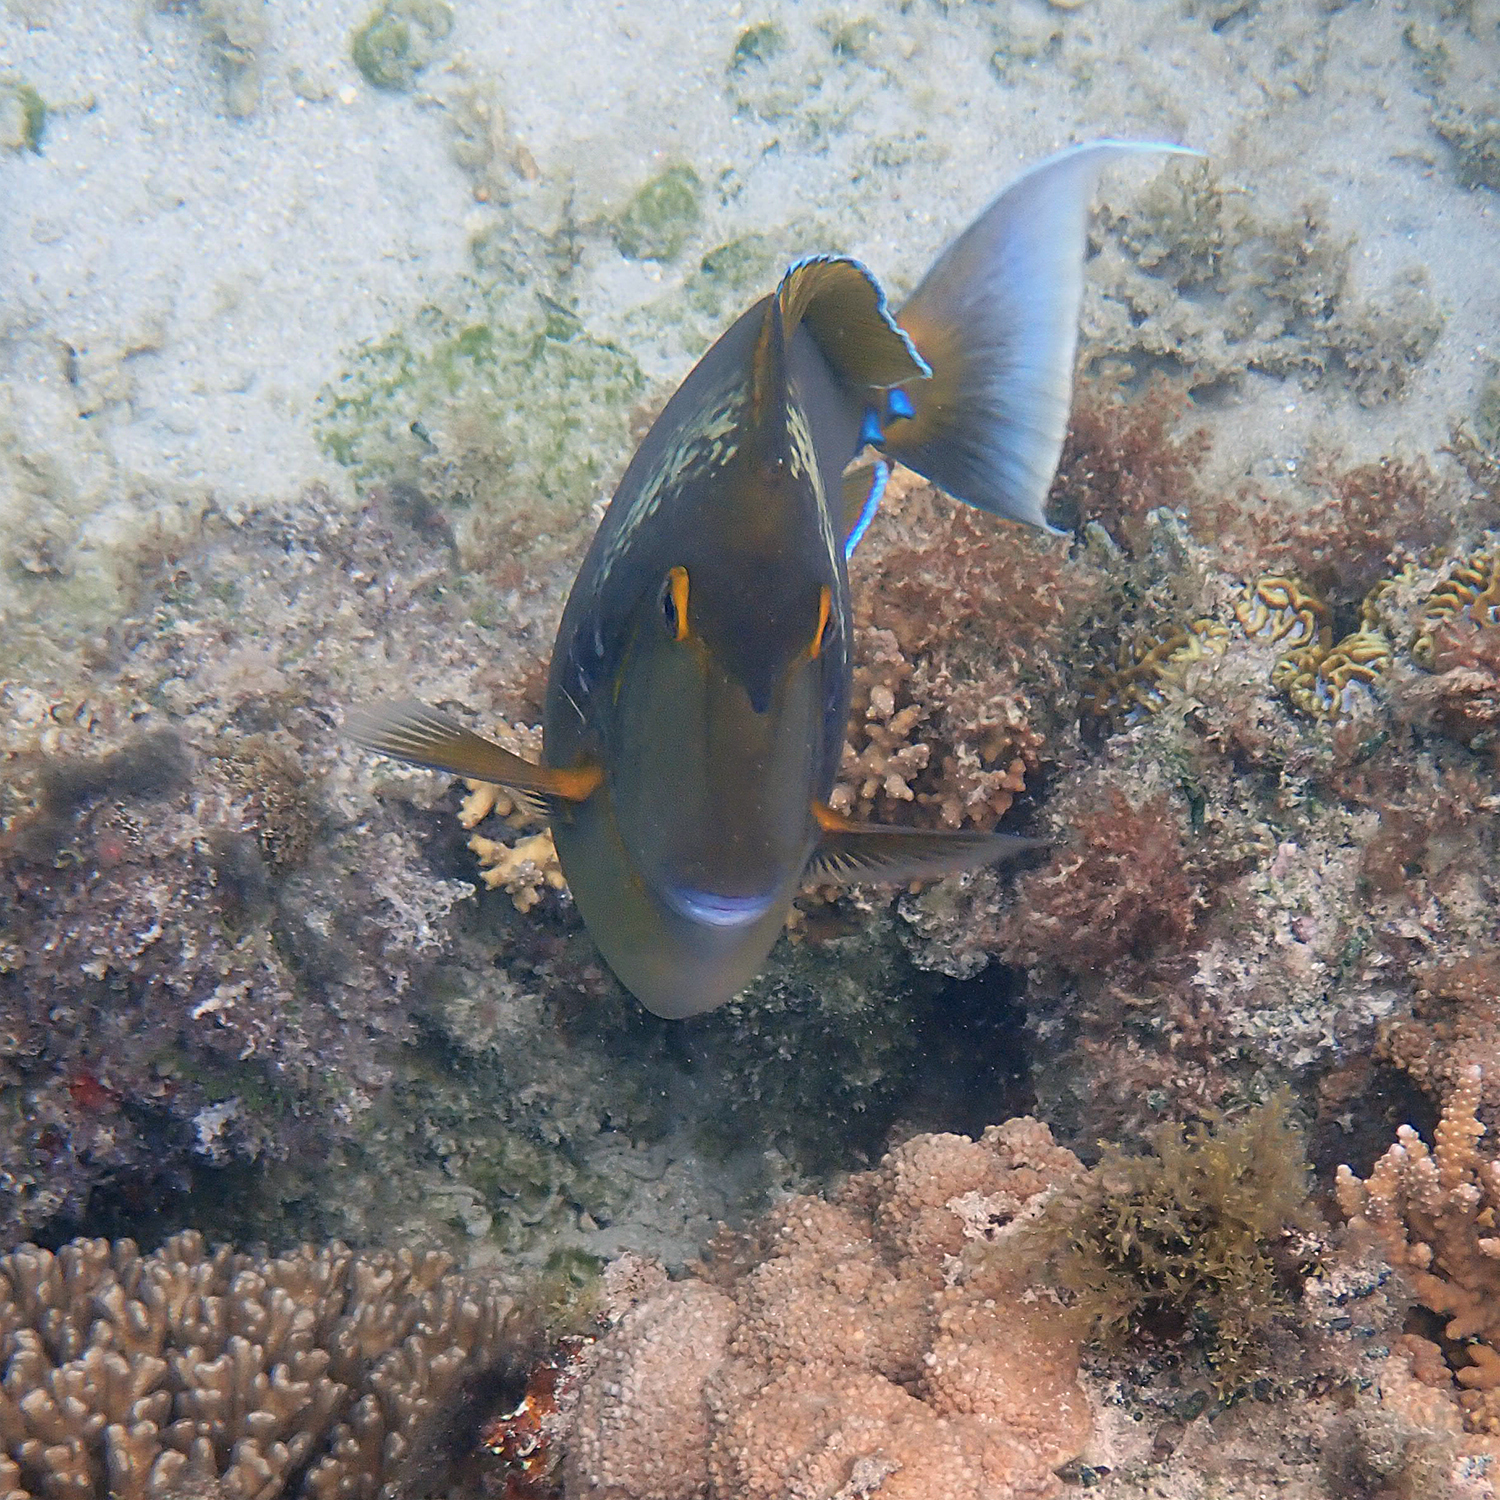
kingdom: Animalia
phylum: Chordata
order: Perciformes
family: Acanthuridae
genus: Naso
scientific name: Naso unicornis
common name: Bluespine unicornfish
